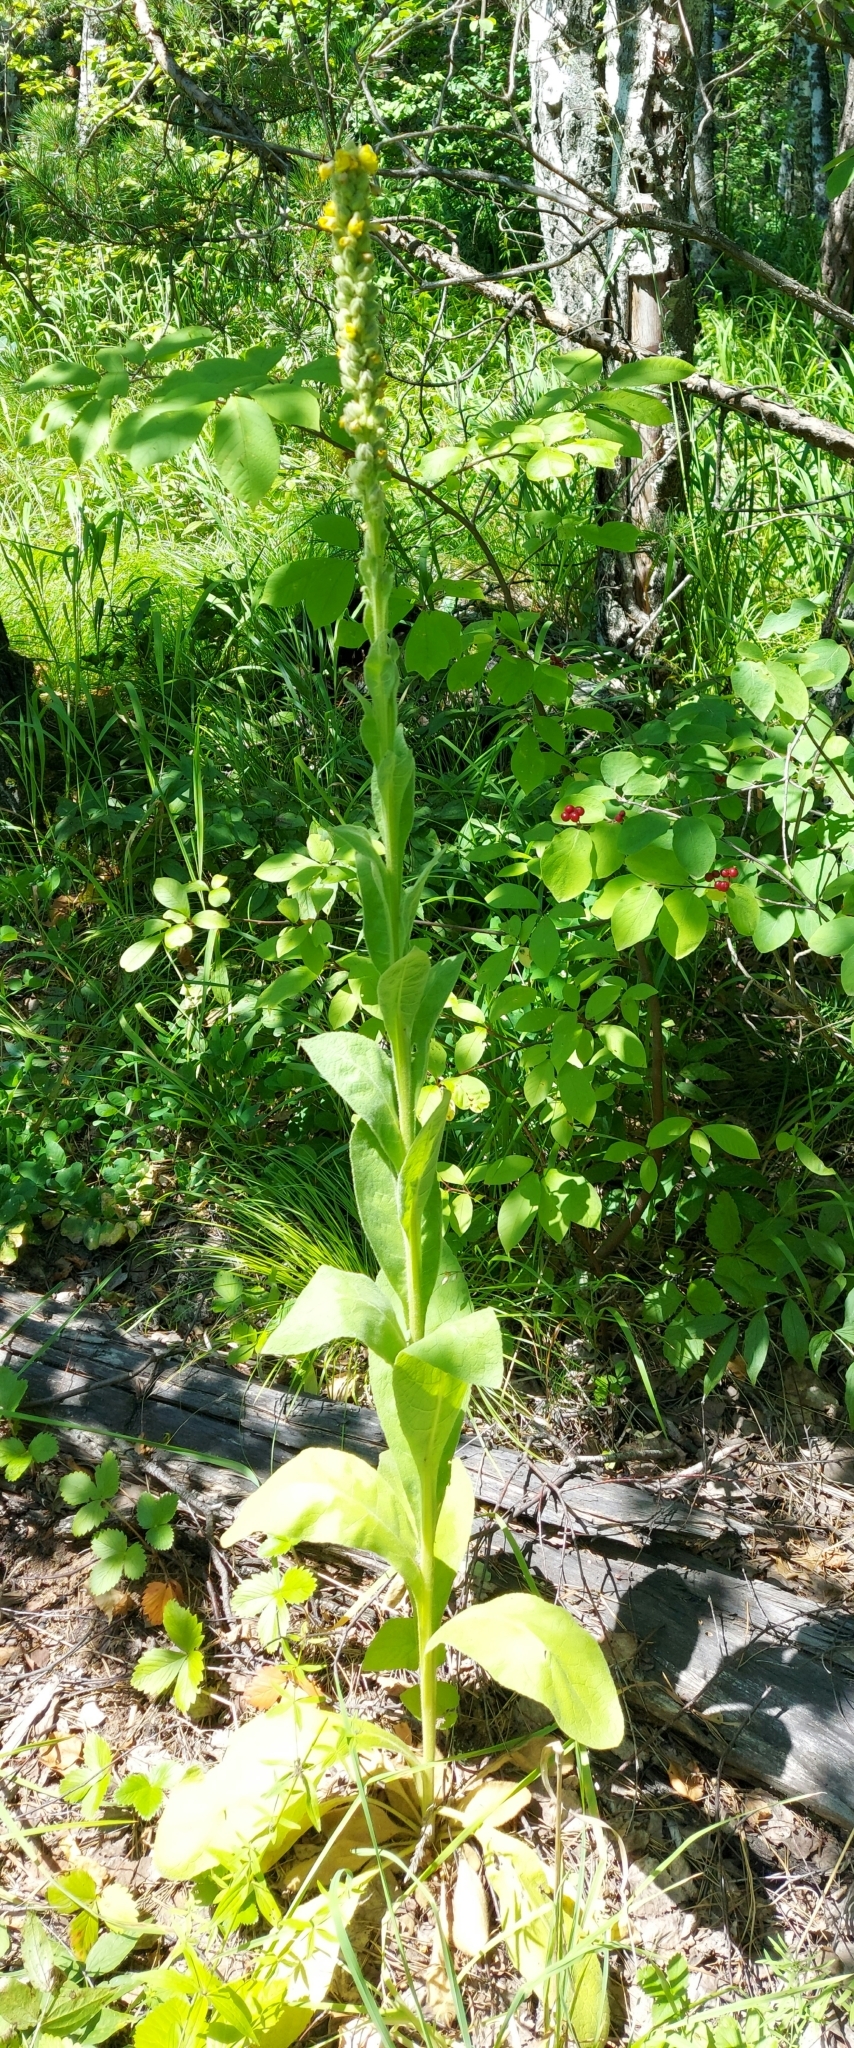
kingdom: Plantae
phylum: Tracheophyta
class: Magnoliopsida
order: Lamiales
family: Scrophulariaceae
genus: Verbascum
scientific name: Verbascum thapsus
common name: Common mullein
